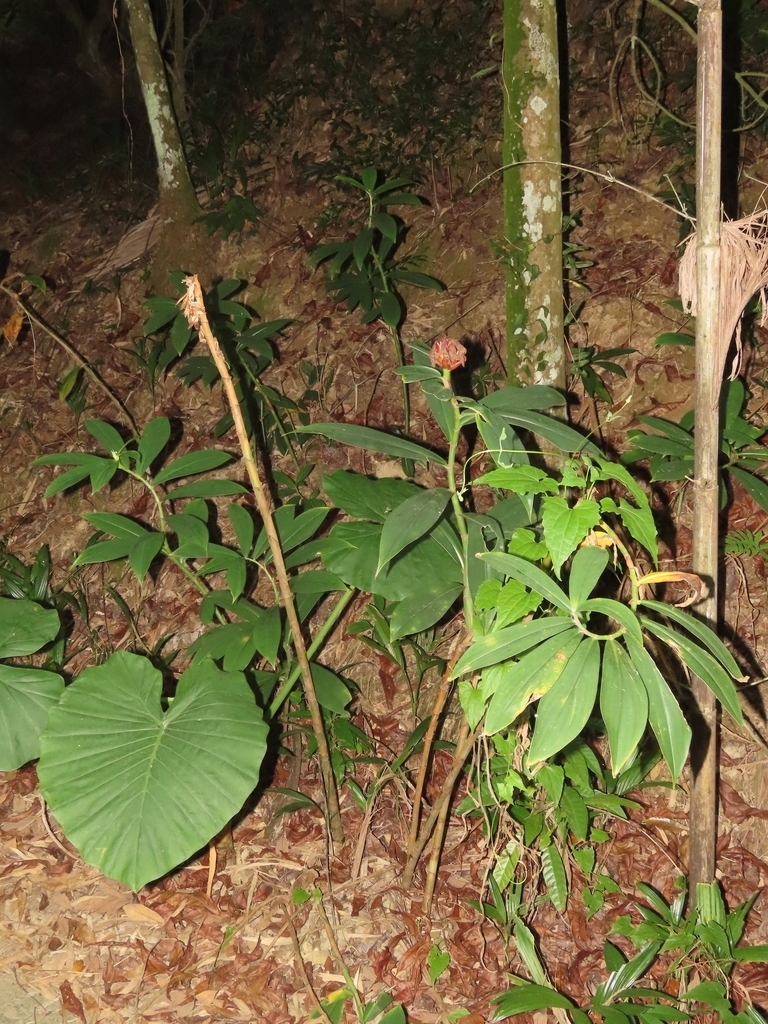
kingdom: Plantae
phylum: Tracheophyta
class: Liliopsida
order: Alismatales
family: Araceae
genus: Alocasia
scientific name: Alocasia odora
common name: Asian taro
